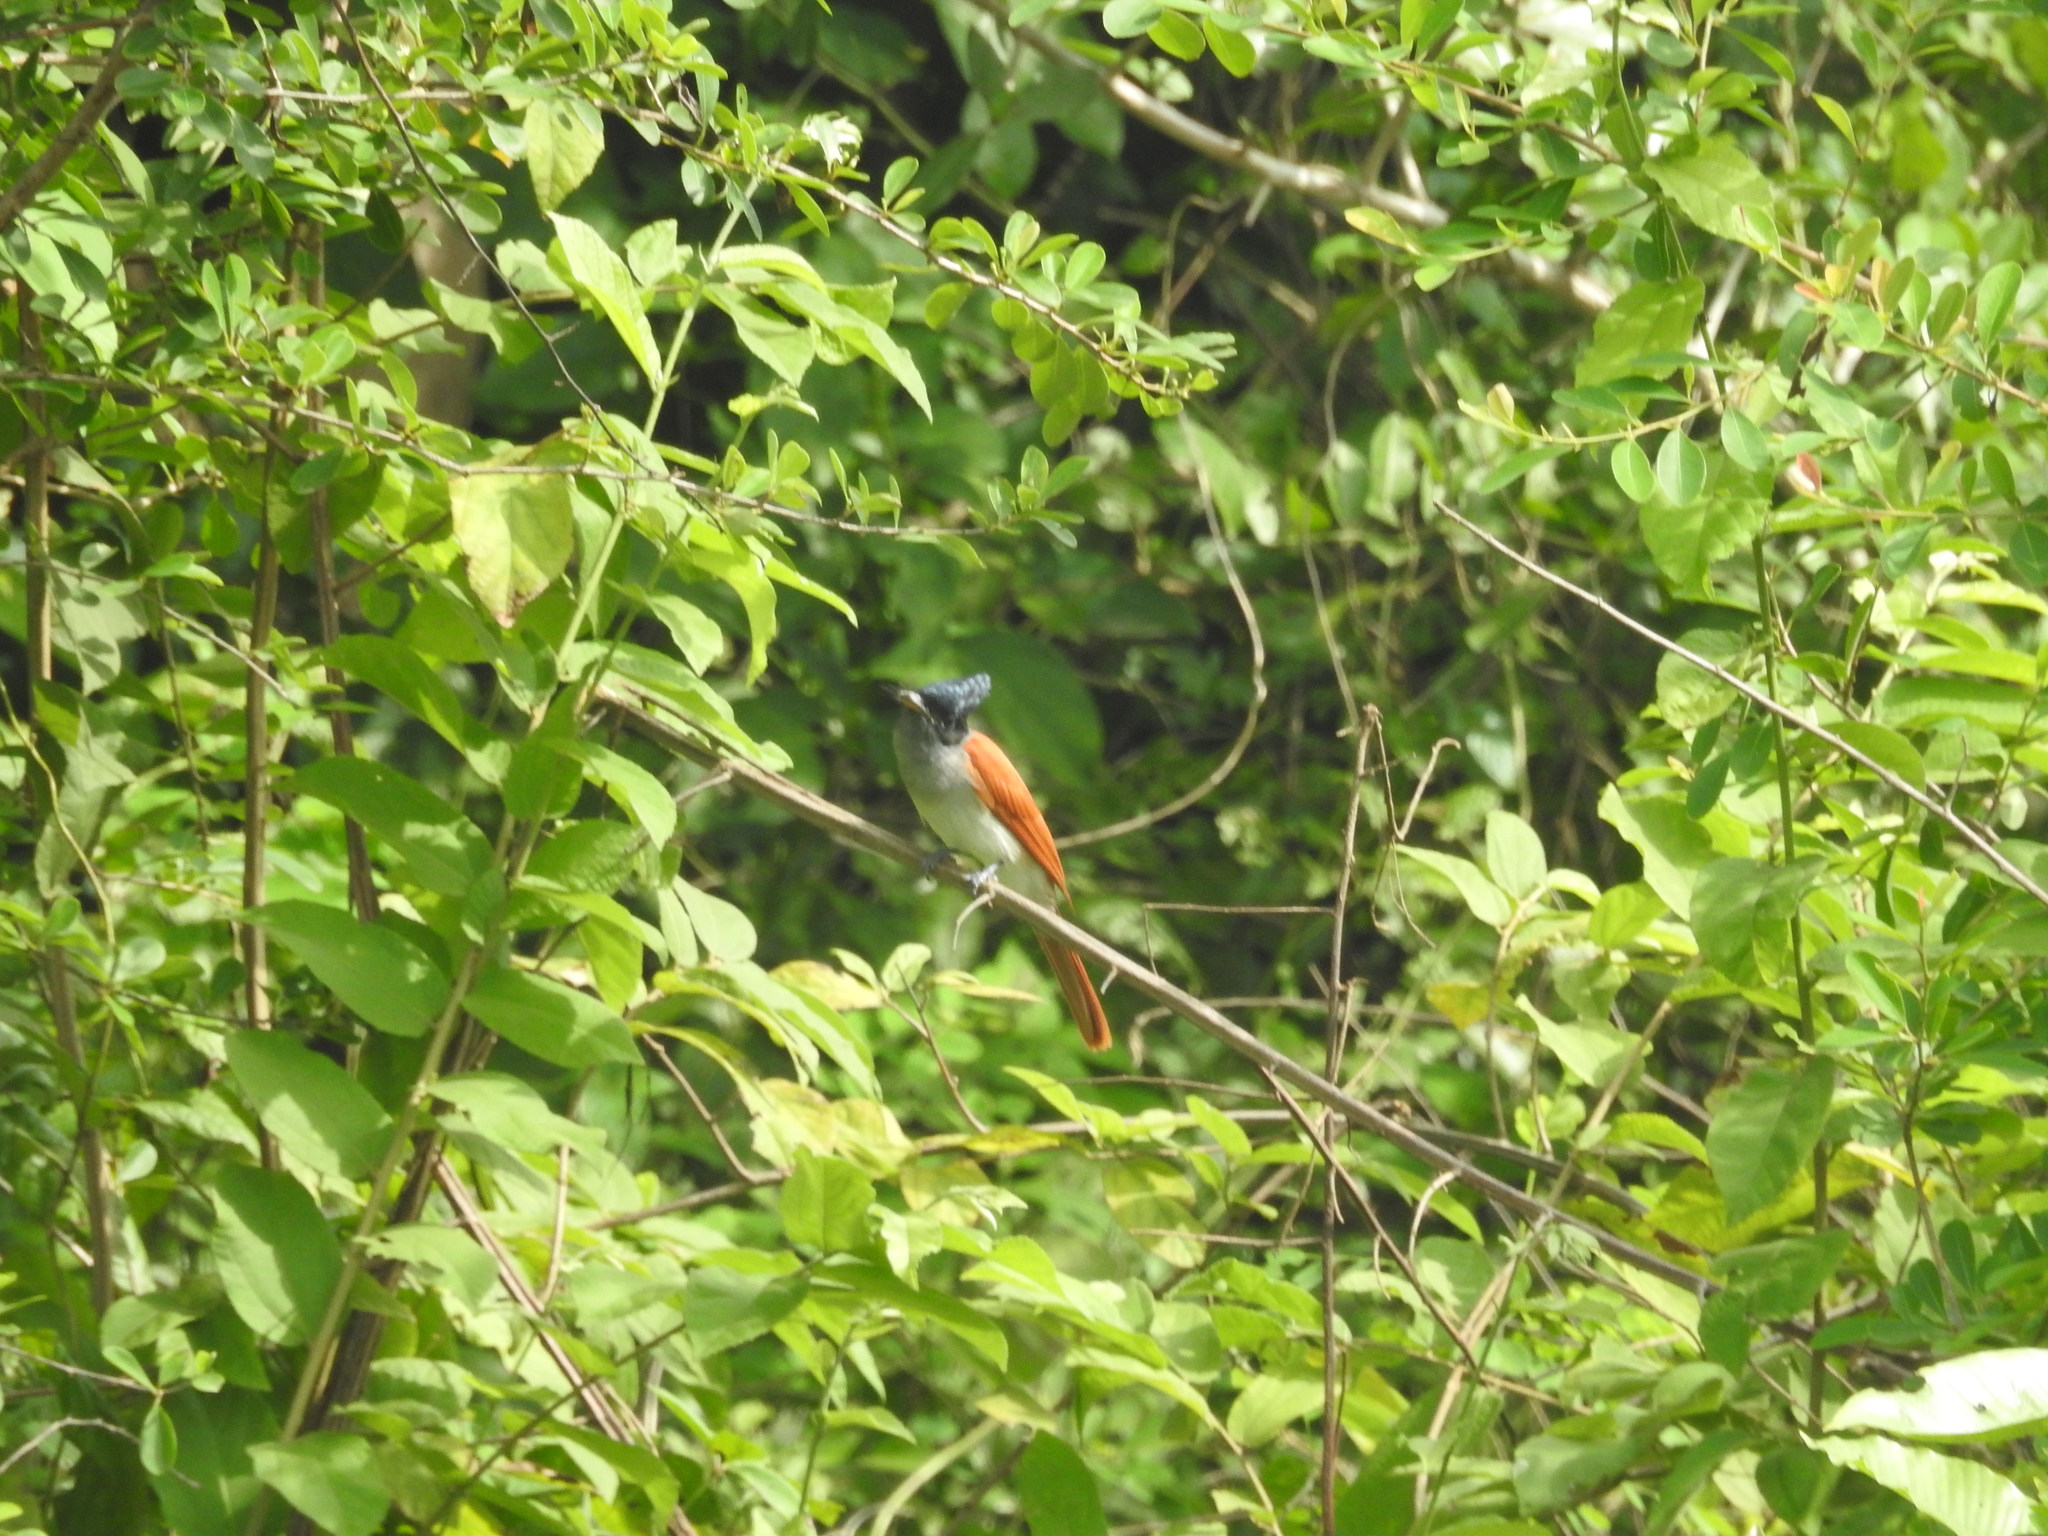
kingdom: Animalia
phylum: Chordata
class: Aves
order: Passeriformes
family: Monarchidae
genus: Terpsiphone
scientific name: Terpsiphone paradisi
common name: Indian paradise flycatcher
